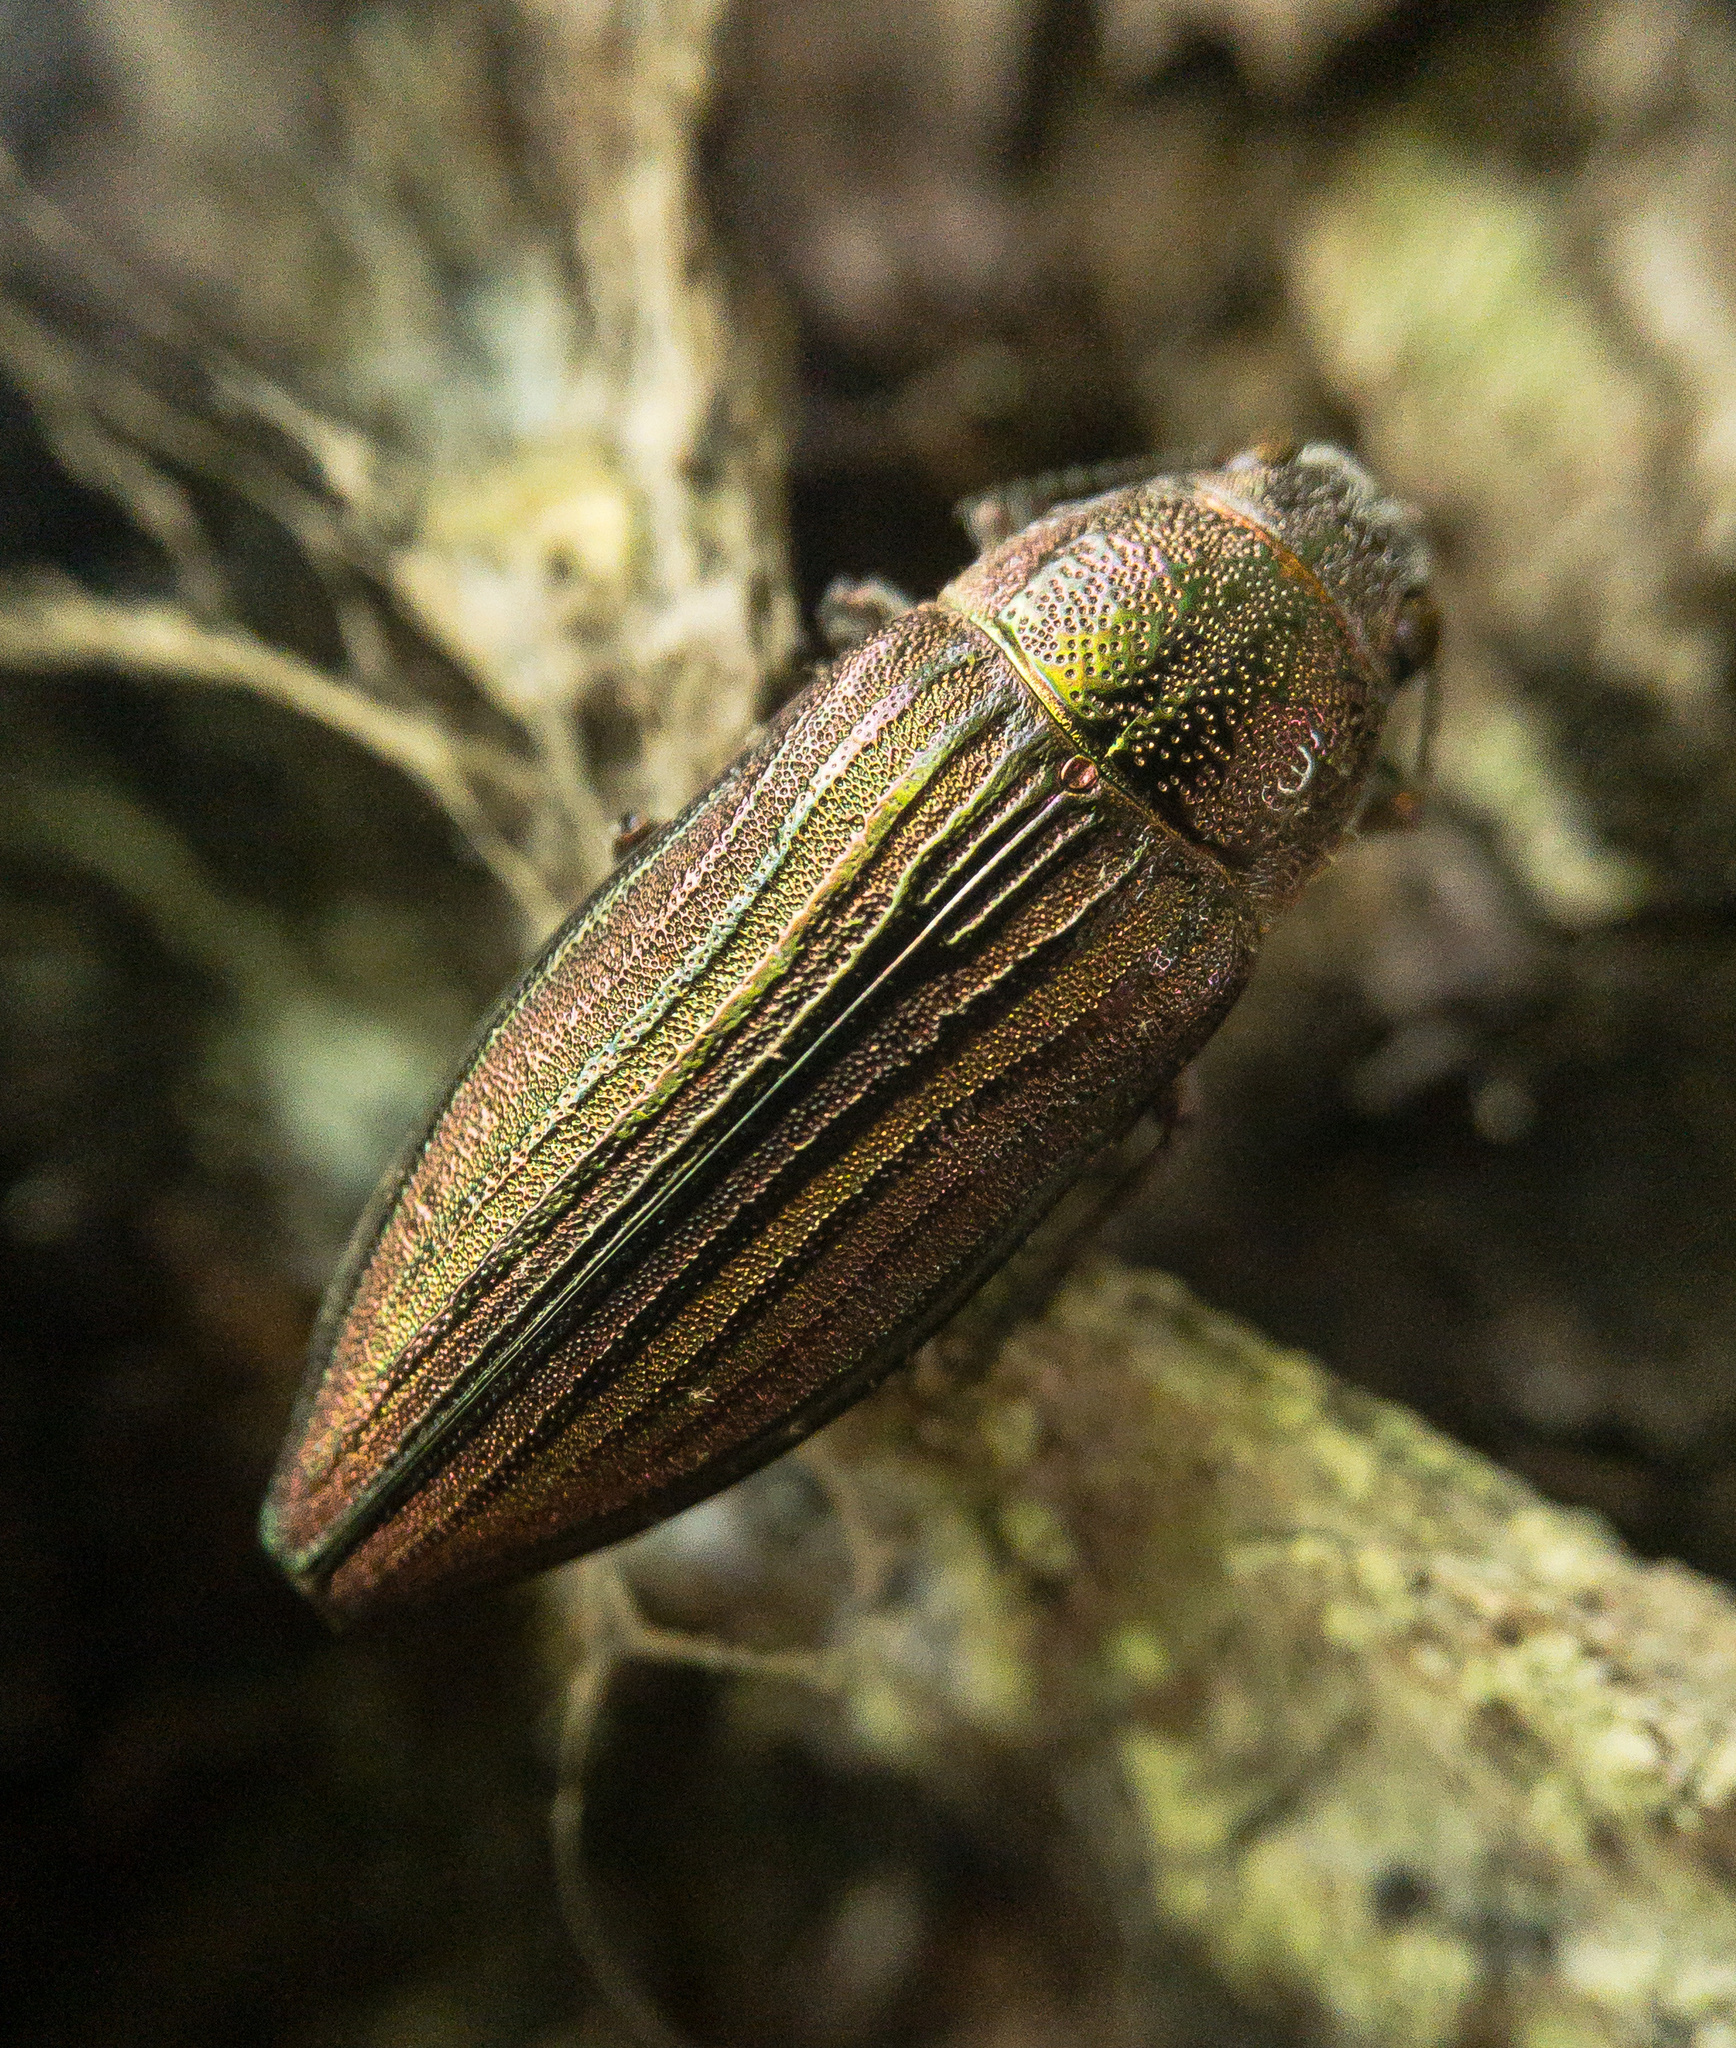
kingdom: Animalia
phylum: Arthropoda
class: Insecta
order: Coleoptera
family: Buprestidae
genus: Buprestis
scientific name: Buprestis striata
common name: Striated jewel beetle
